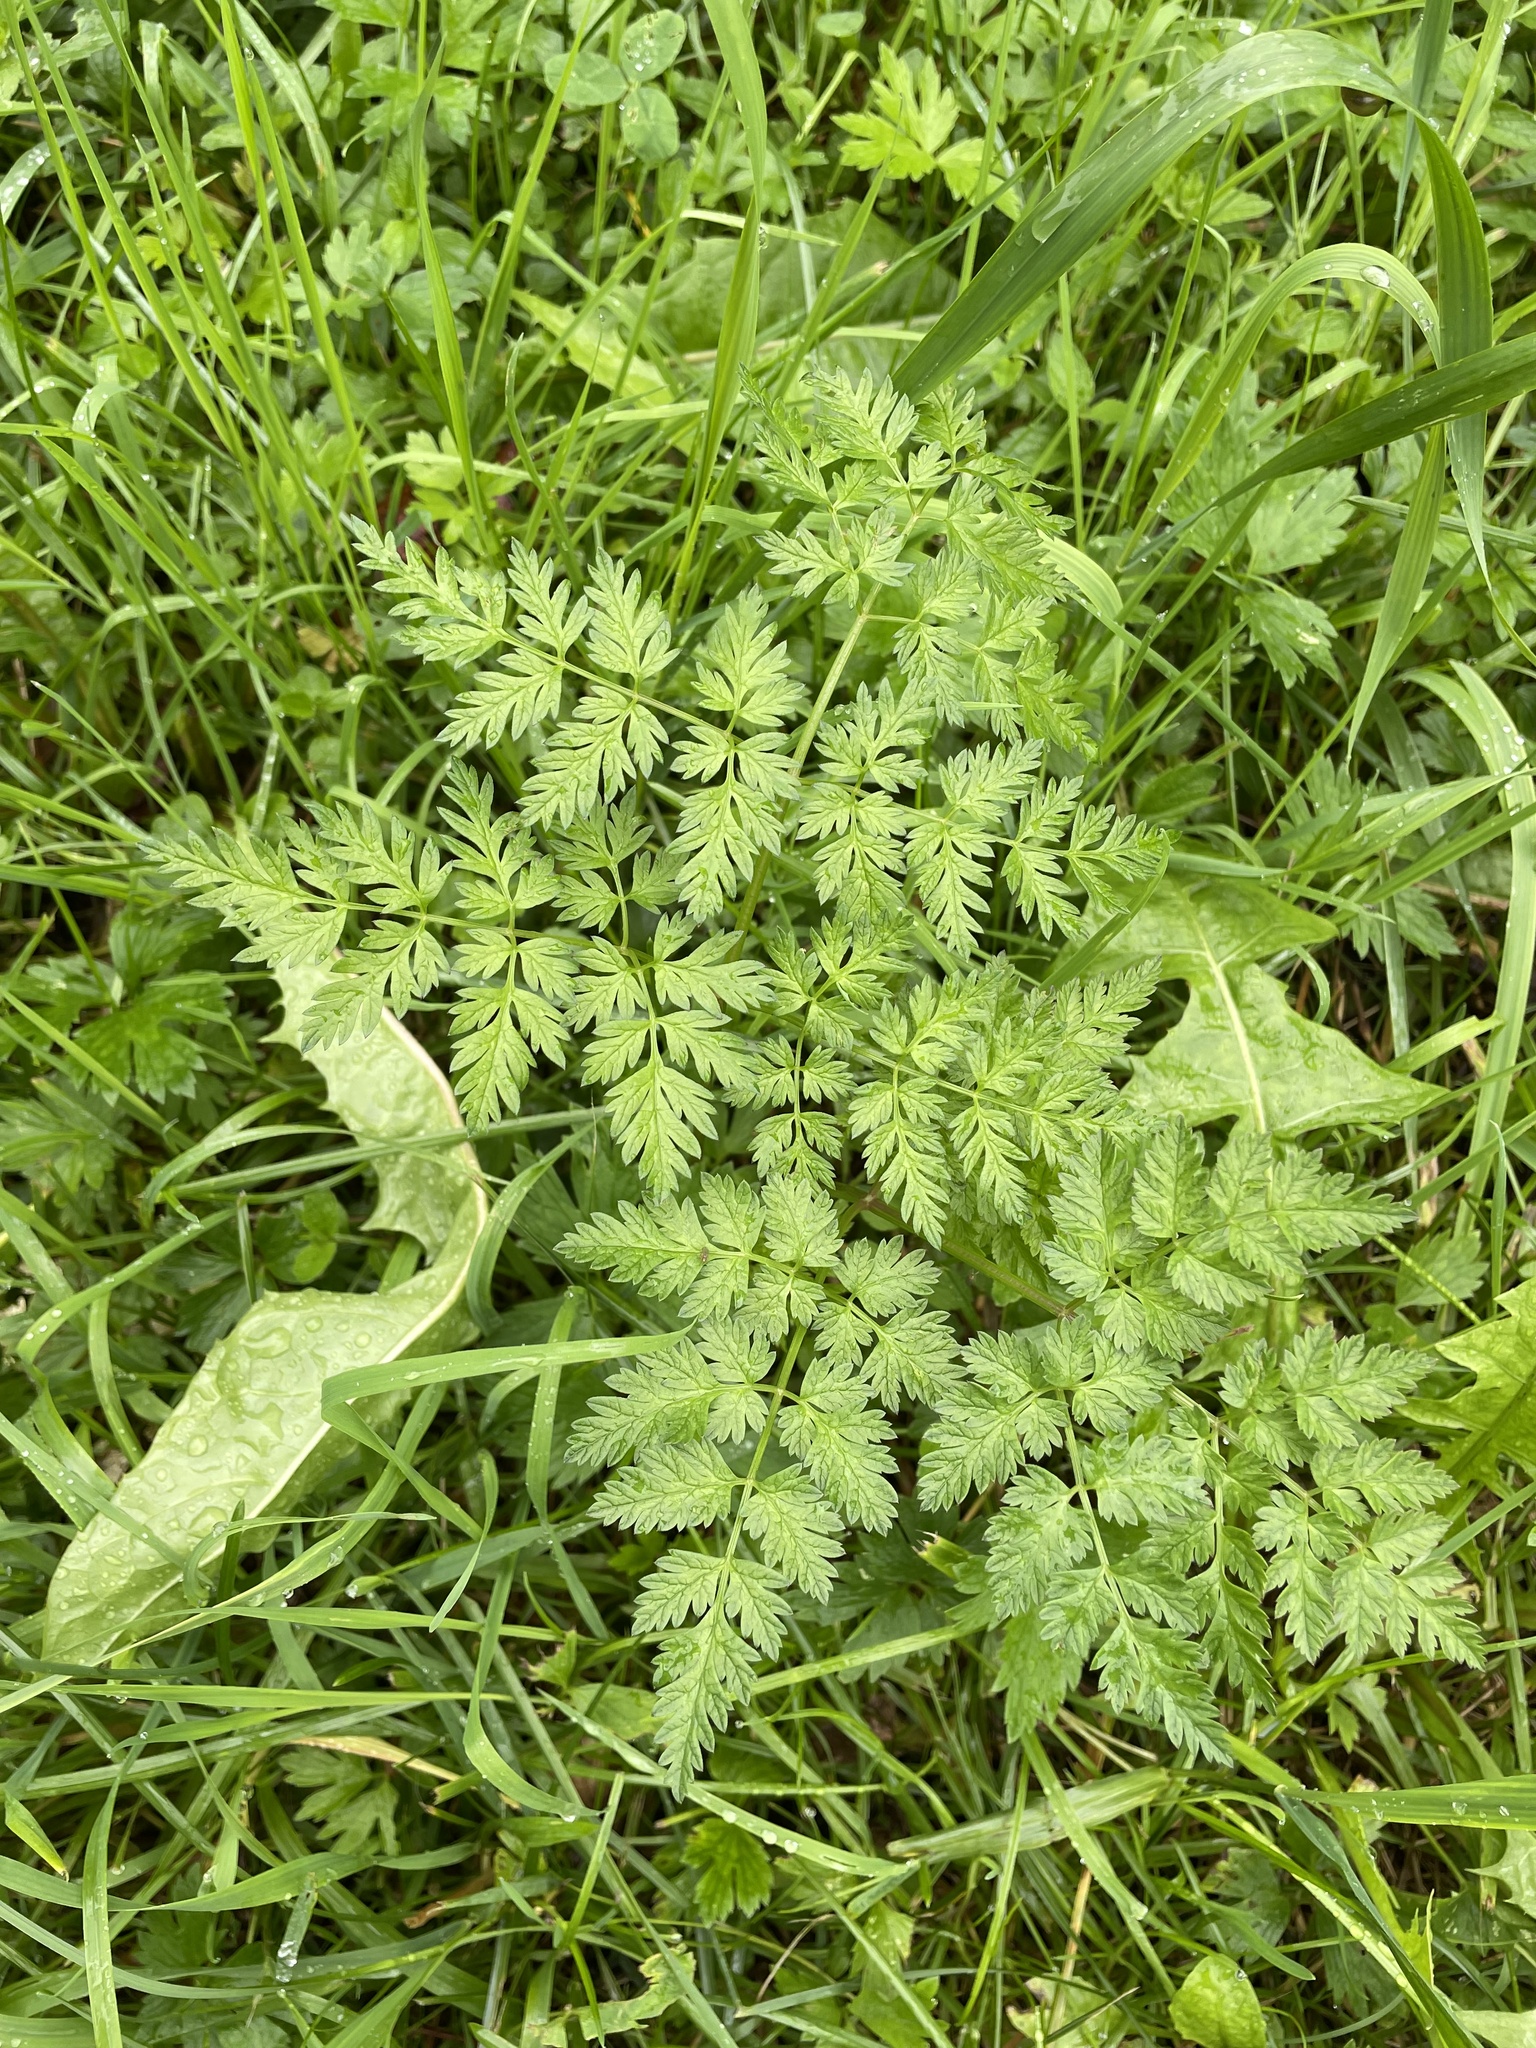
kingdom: Plantae
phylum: Tracheophyta
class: Magnoliopsida
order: Apiales
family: Apiaceae
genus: Anthriscus
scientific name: Anthriscus sylvestris
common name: Cow parsley
